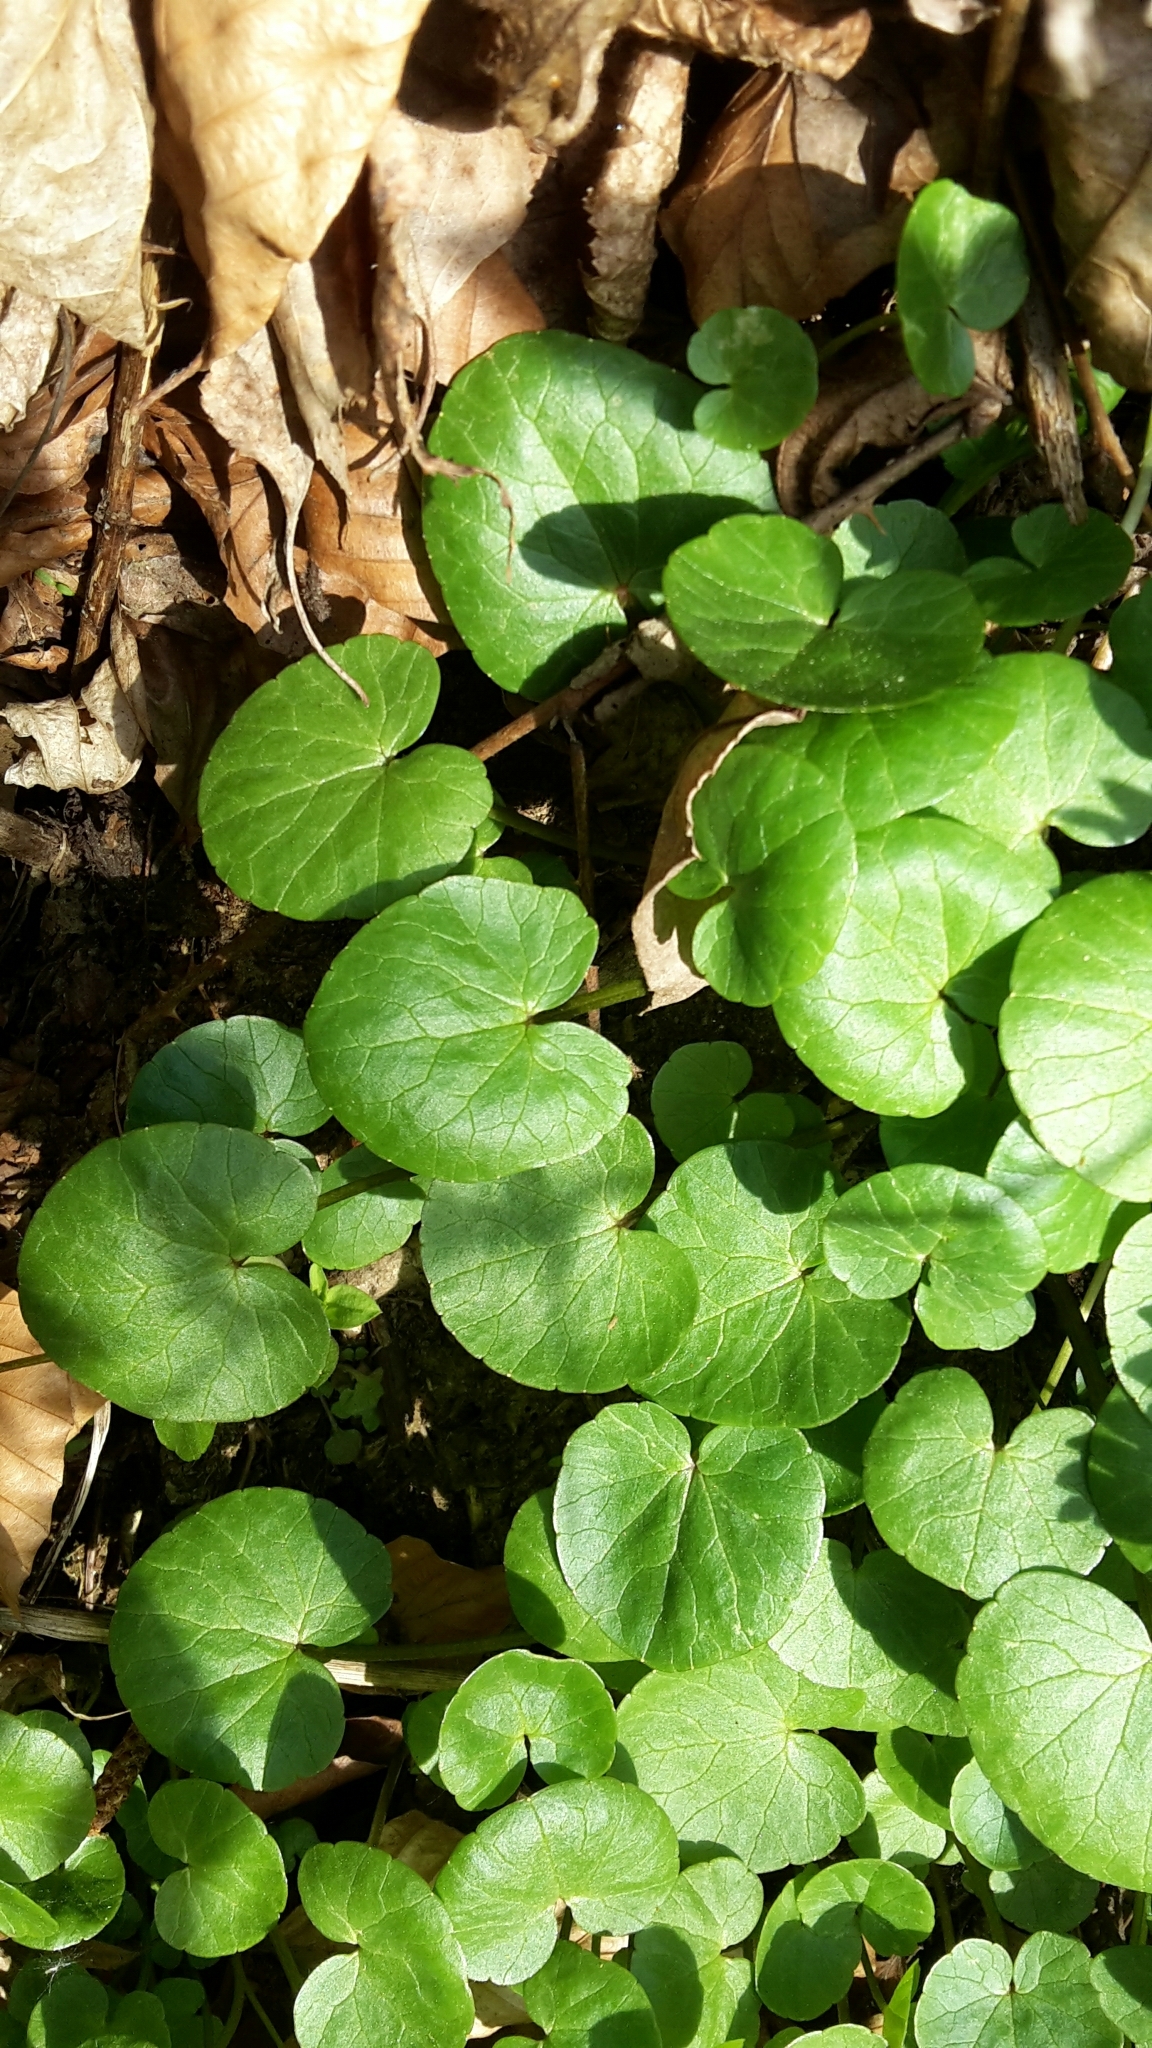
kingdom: Plantae
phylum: Tracheophyta
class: Magnoliopsida
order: Ranunculales
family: Ranunculaceae
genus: Ficaria
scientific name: Ficaria verna
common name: Lesser celandine
